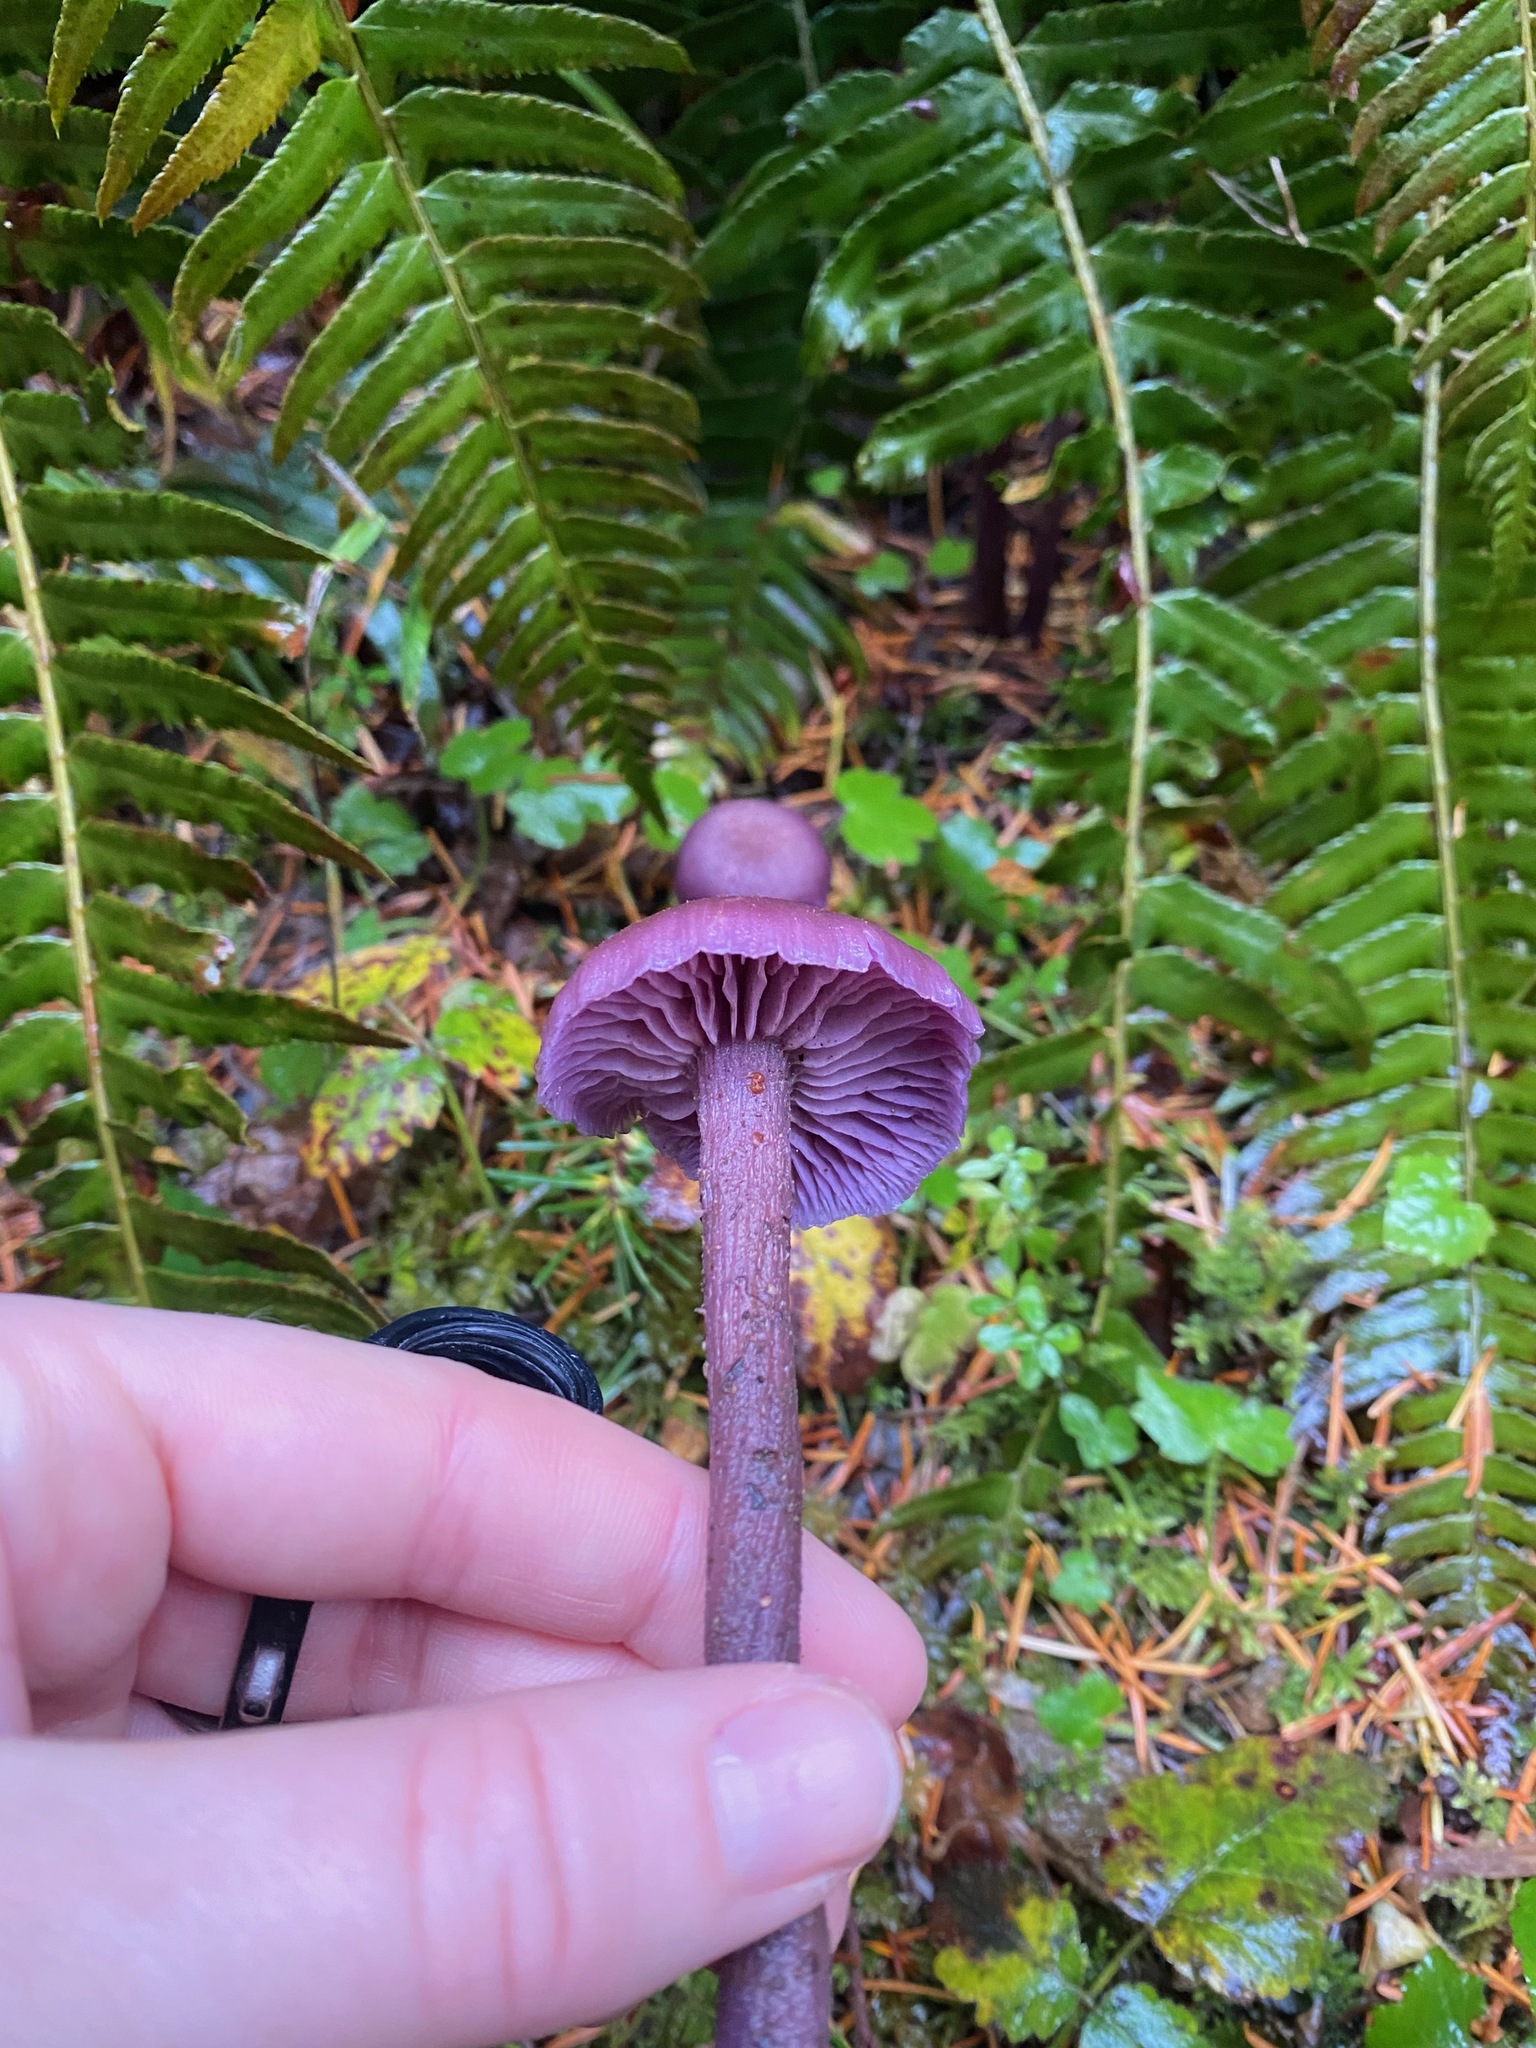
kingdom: Fungi
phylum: Basidiomycota
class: Agaricomycetes
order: Agaricales
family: Hydnangiaceae
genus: Laccaria
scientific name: Laccaria amethysteo-occidentalis
